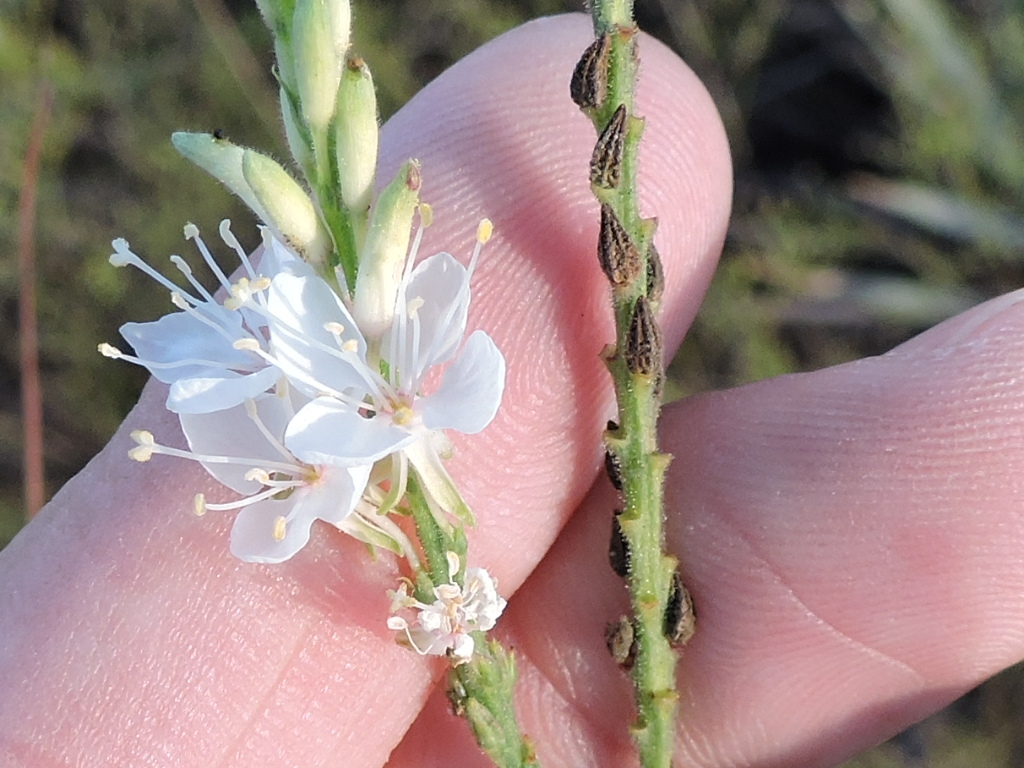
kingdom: Plantae
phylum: Tracheophyta
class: Magnoliopsida
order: Myrtales
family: Onagraceae
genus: Oenothera
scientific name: Oenothera glaucifolia
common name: False gaura
